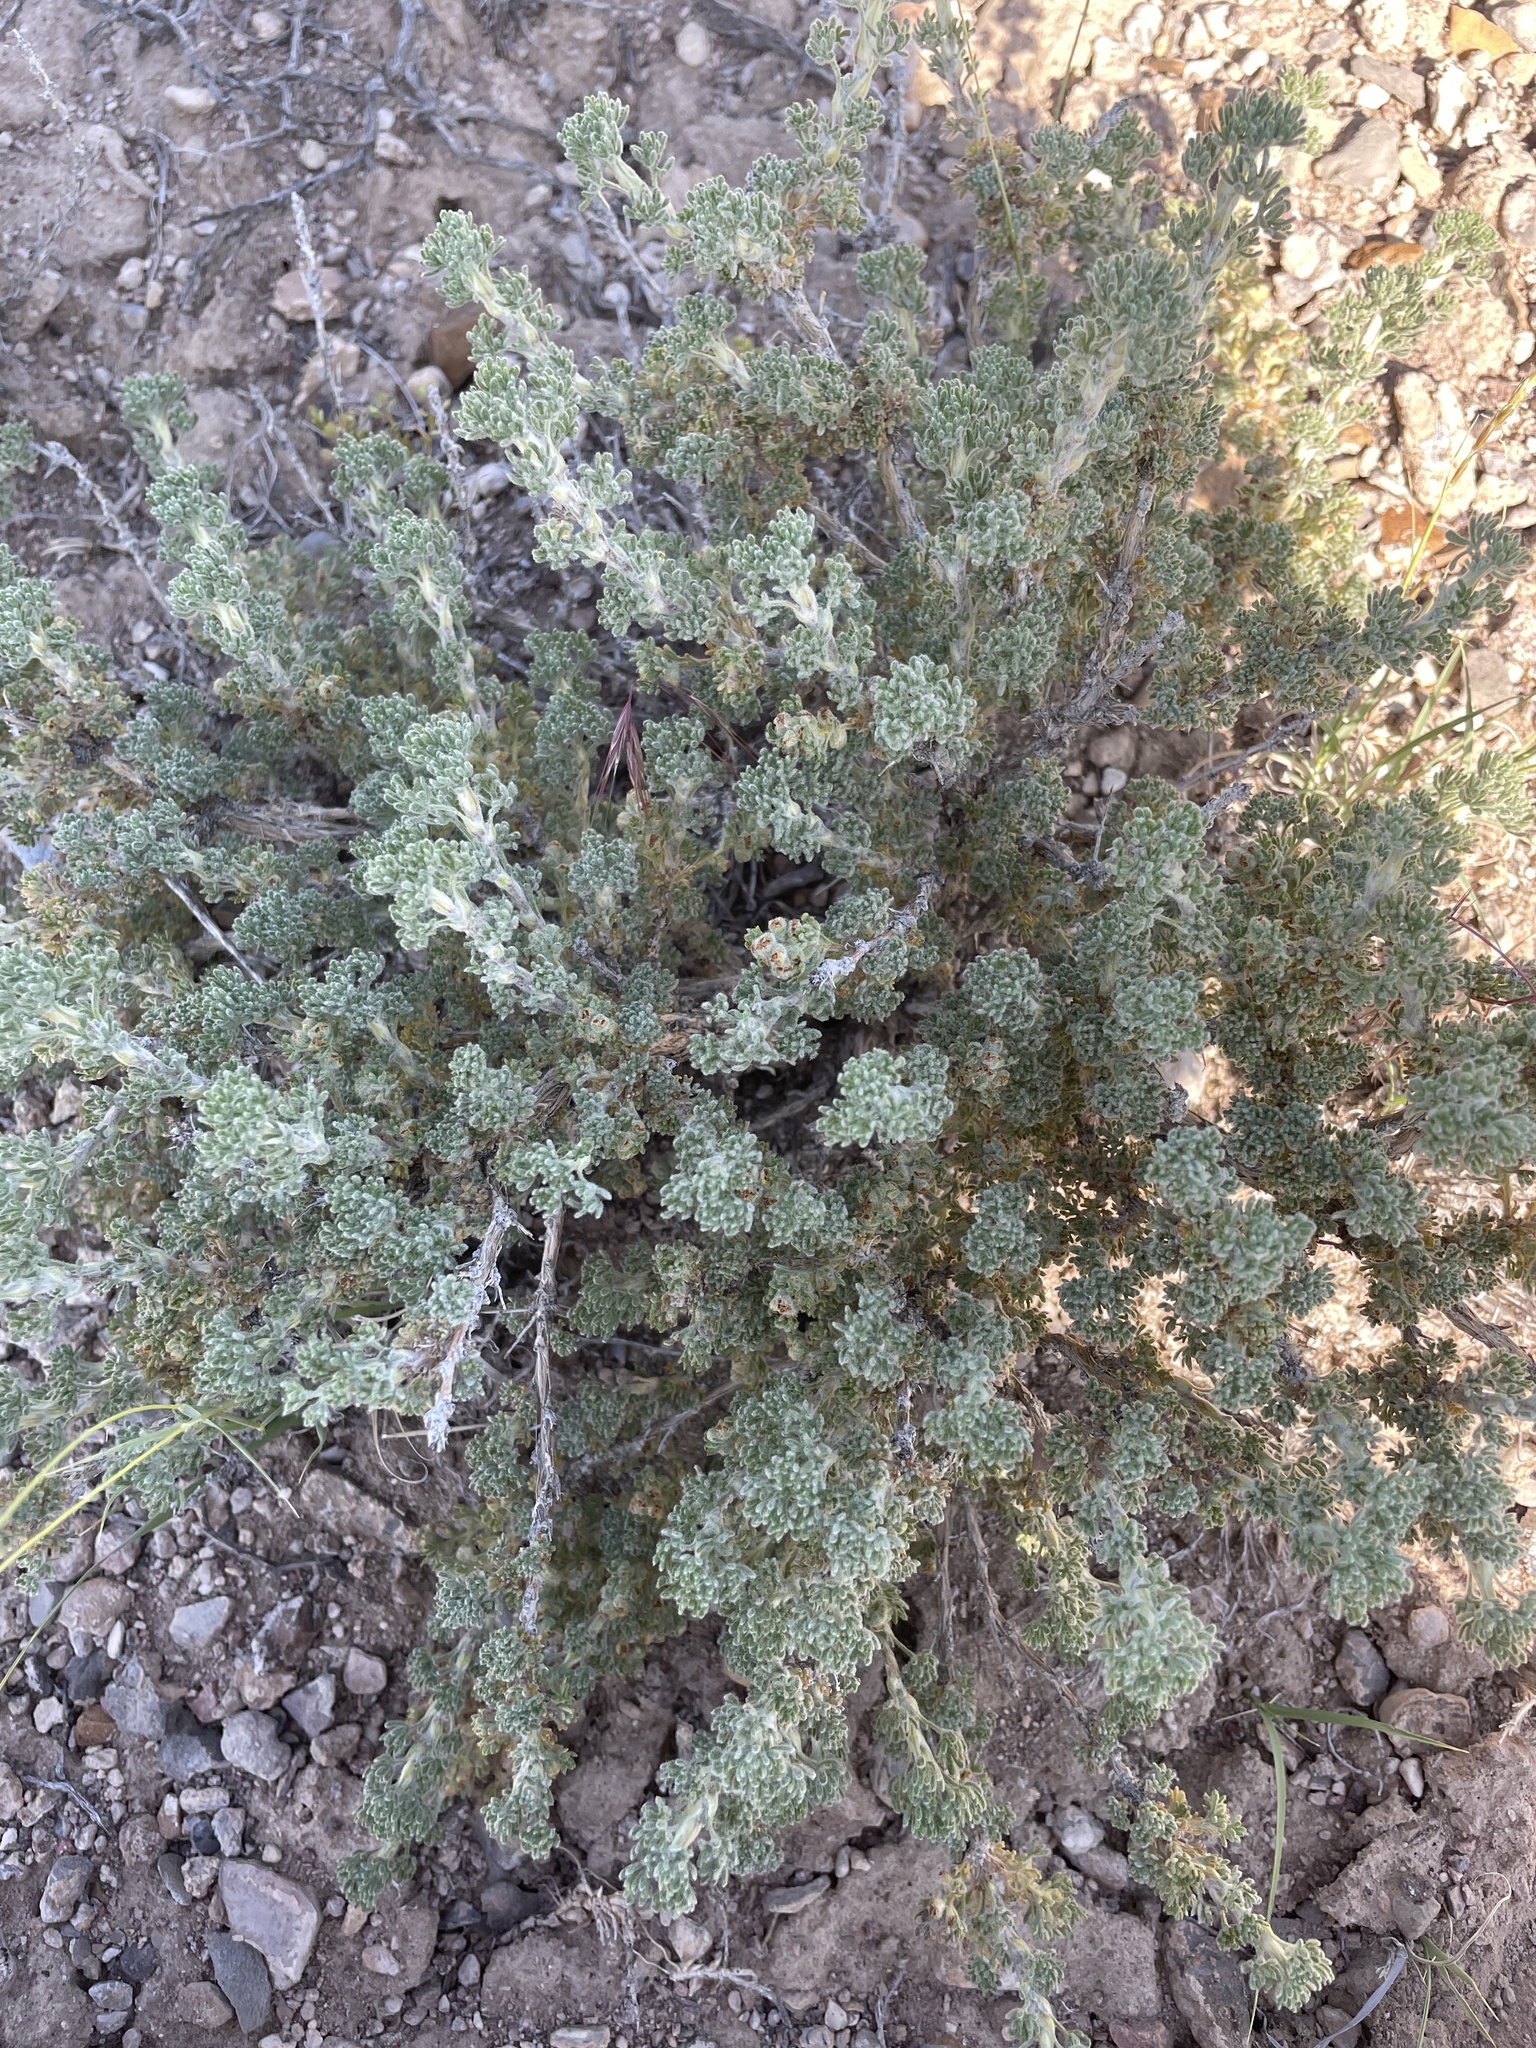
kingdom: Plantae
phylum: Tracheophyta
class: Magnoliopsida
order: Asterales
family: Asteraceae
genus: Artemisia
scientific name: Artemisia spinescens
